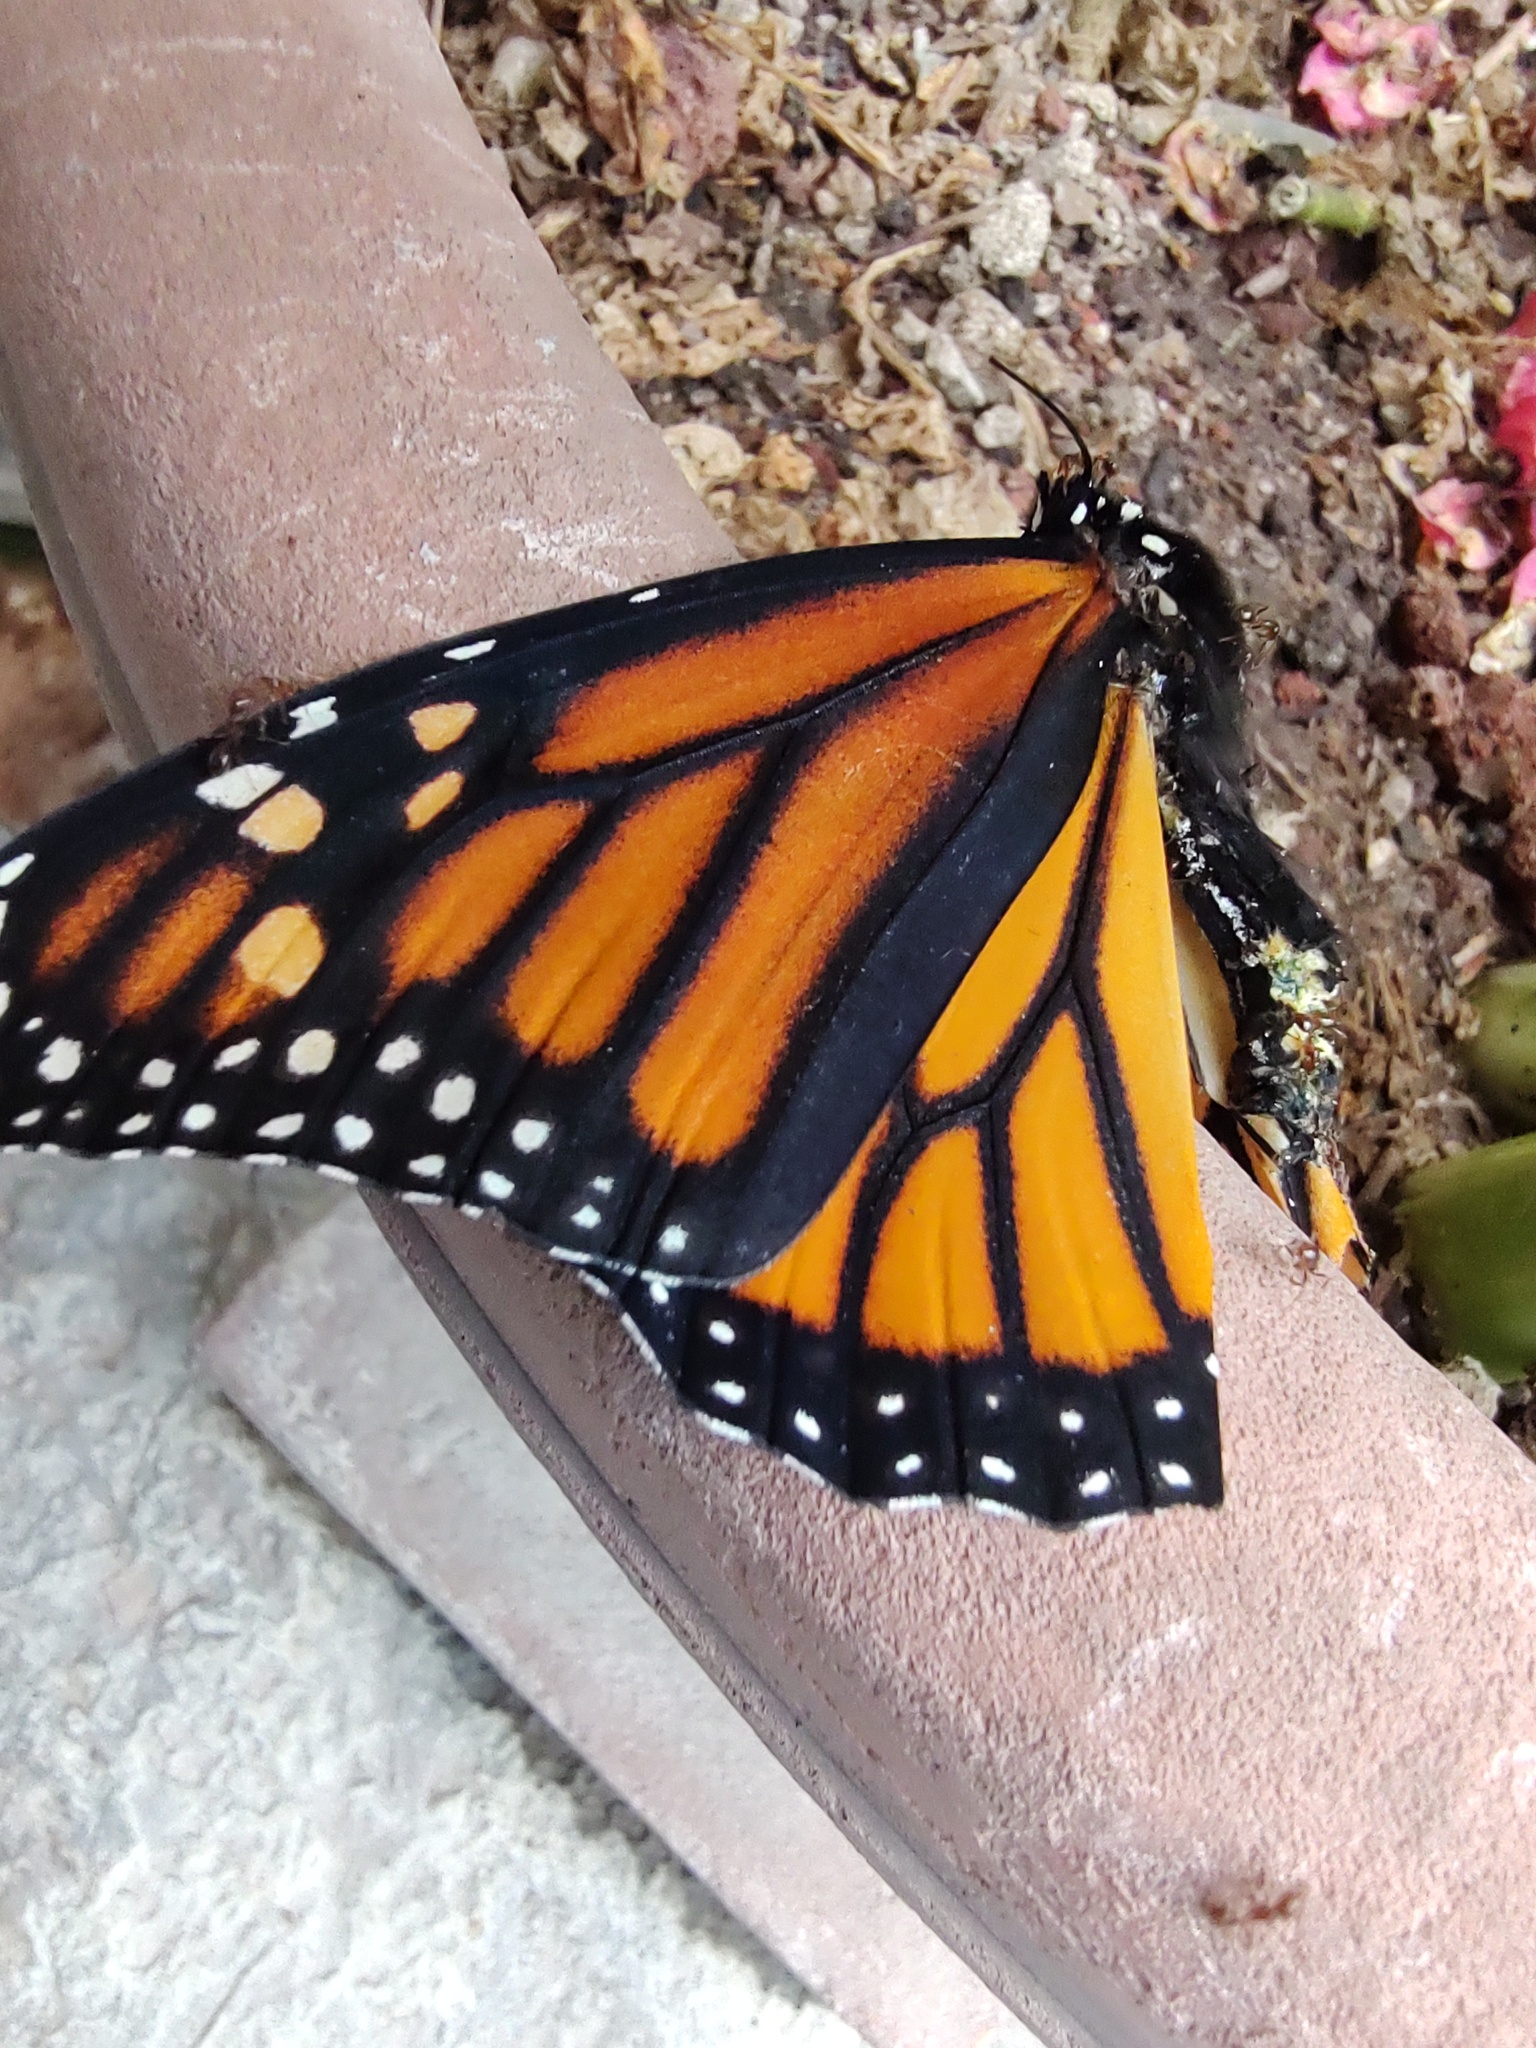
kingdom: Animalia
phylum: Arthropoda
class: Insecta
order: Lepidoptera
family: Nymphalidae
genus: Danaus
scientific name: Danaus plexippus
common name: Monarch
